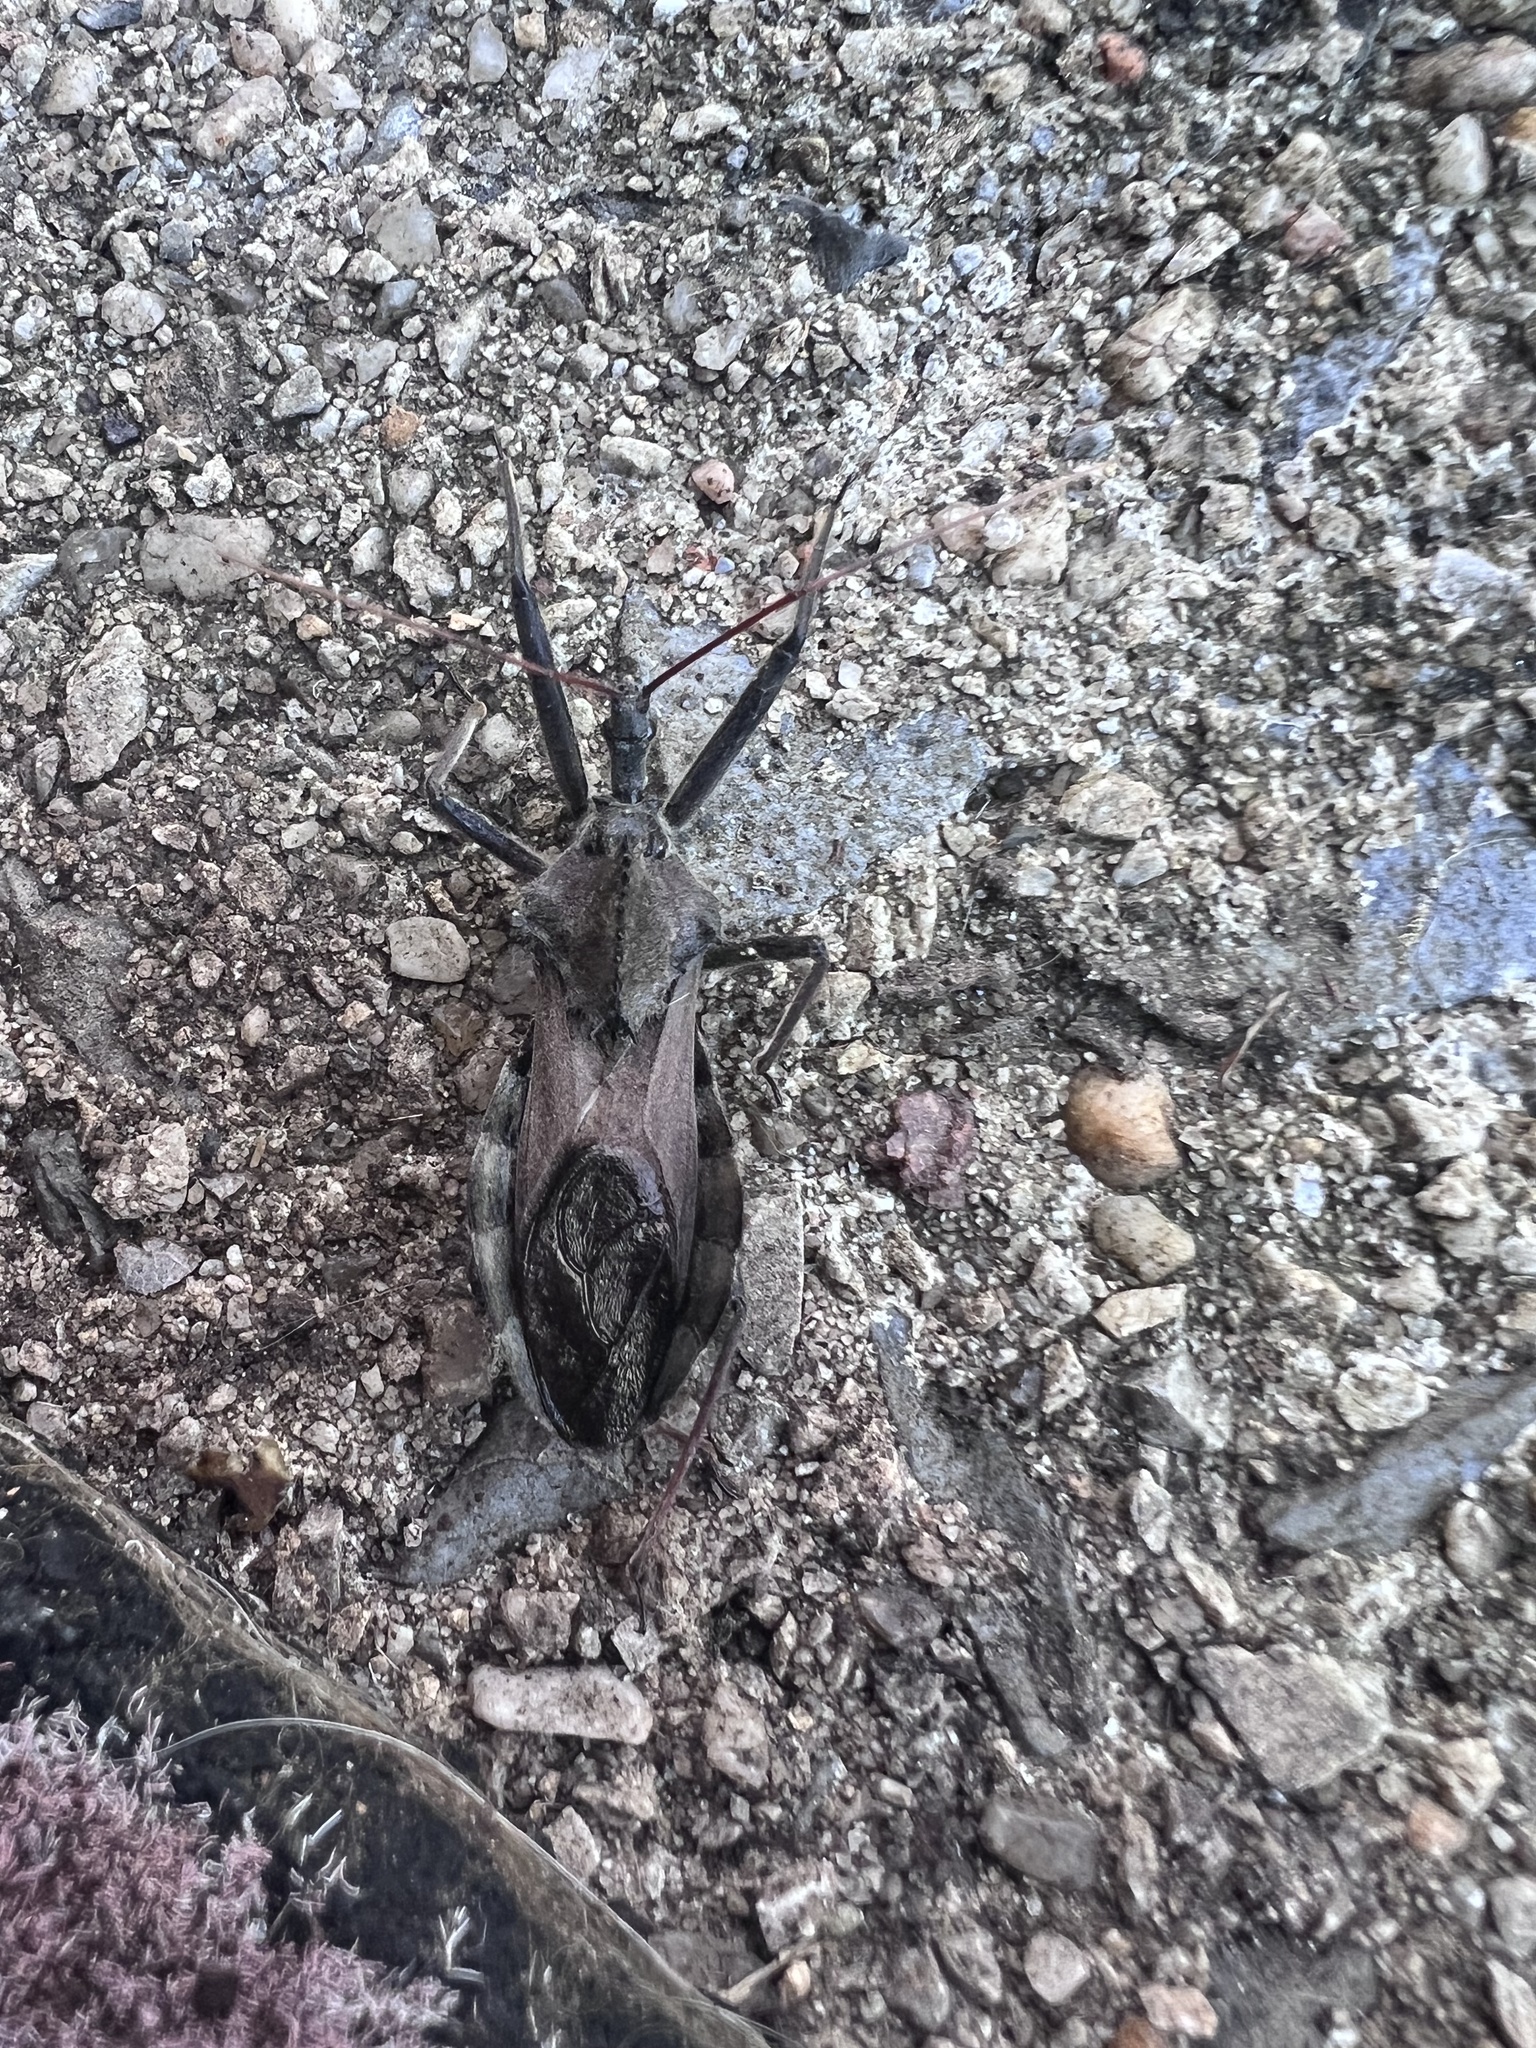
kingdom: Animalia
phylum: Arthropoda
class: Insecta
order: Hemiptera
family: Reduviidae
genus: Arilus
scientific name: Arilus cristatus
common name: North american wheel bug
